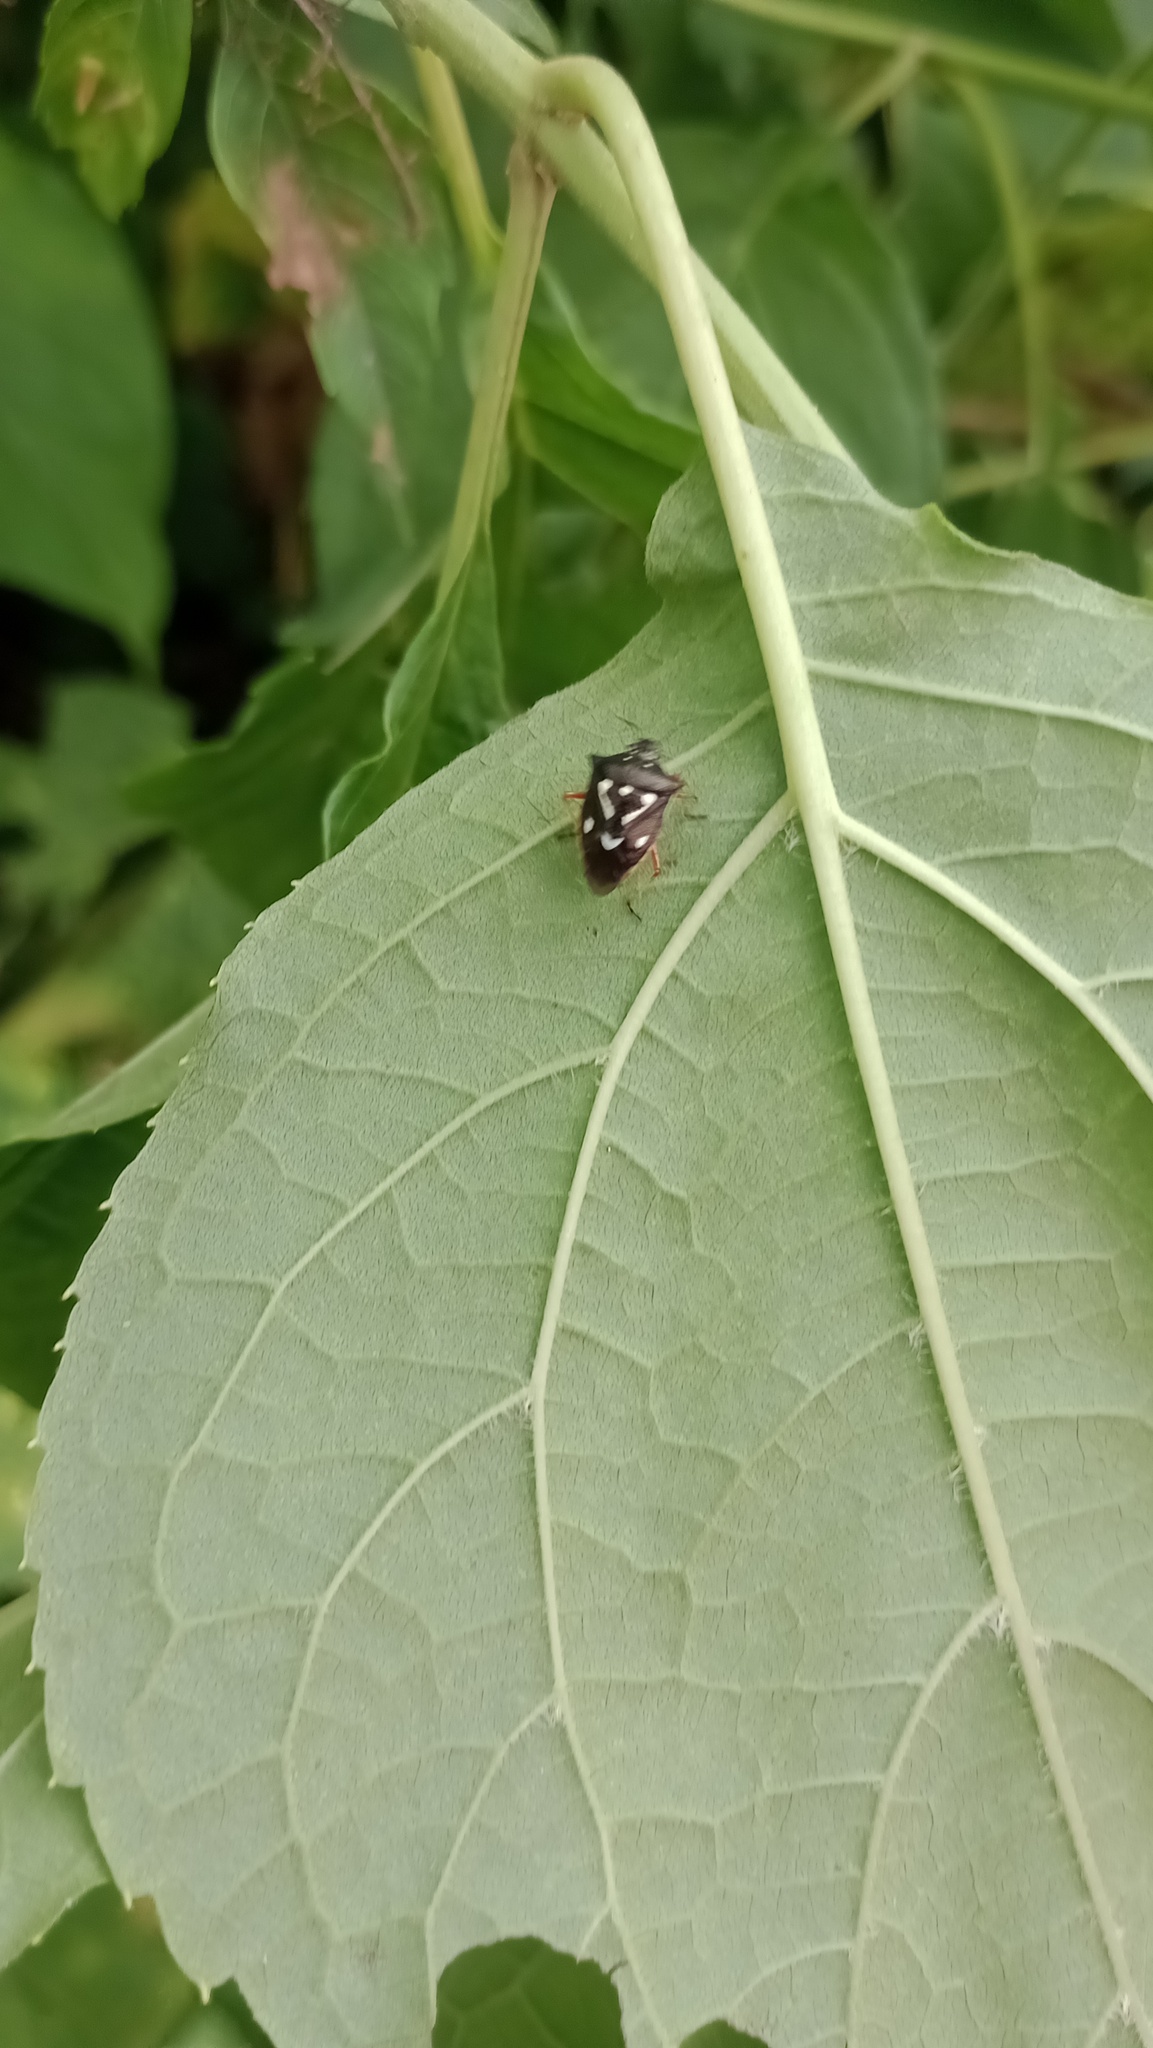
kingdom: Animalia
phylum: Arthropoda
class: Insecta
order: Hemiptera
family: Pentatomidae
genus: Mormidea
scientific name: Mormidea v-luteum
